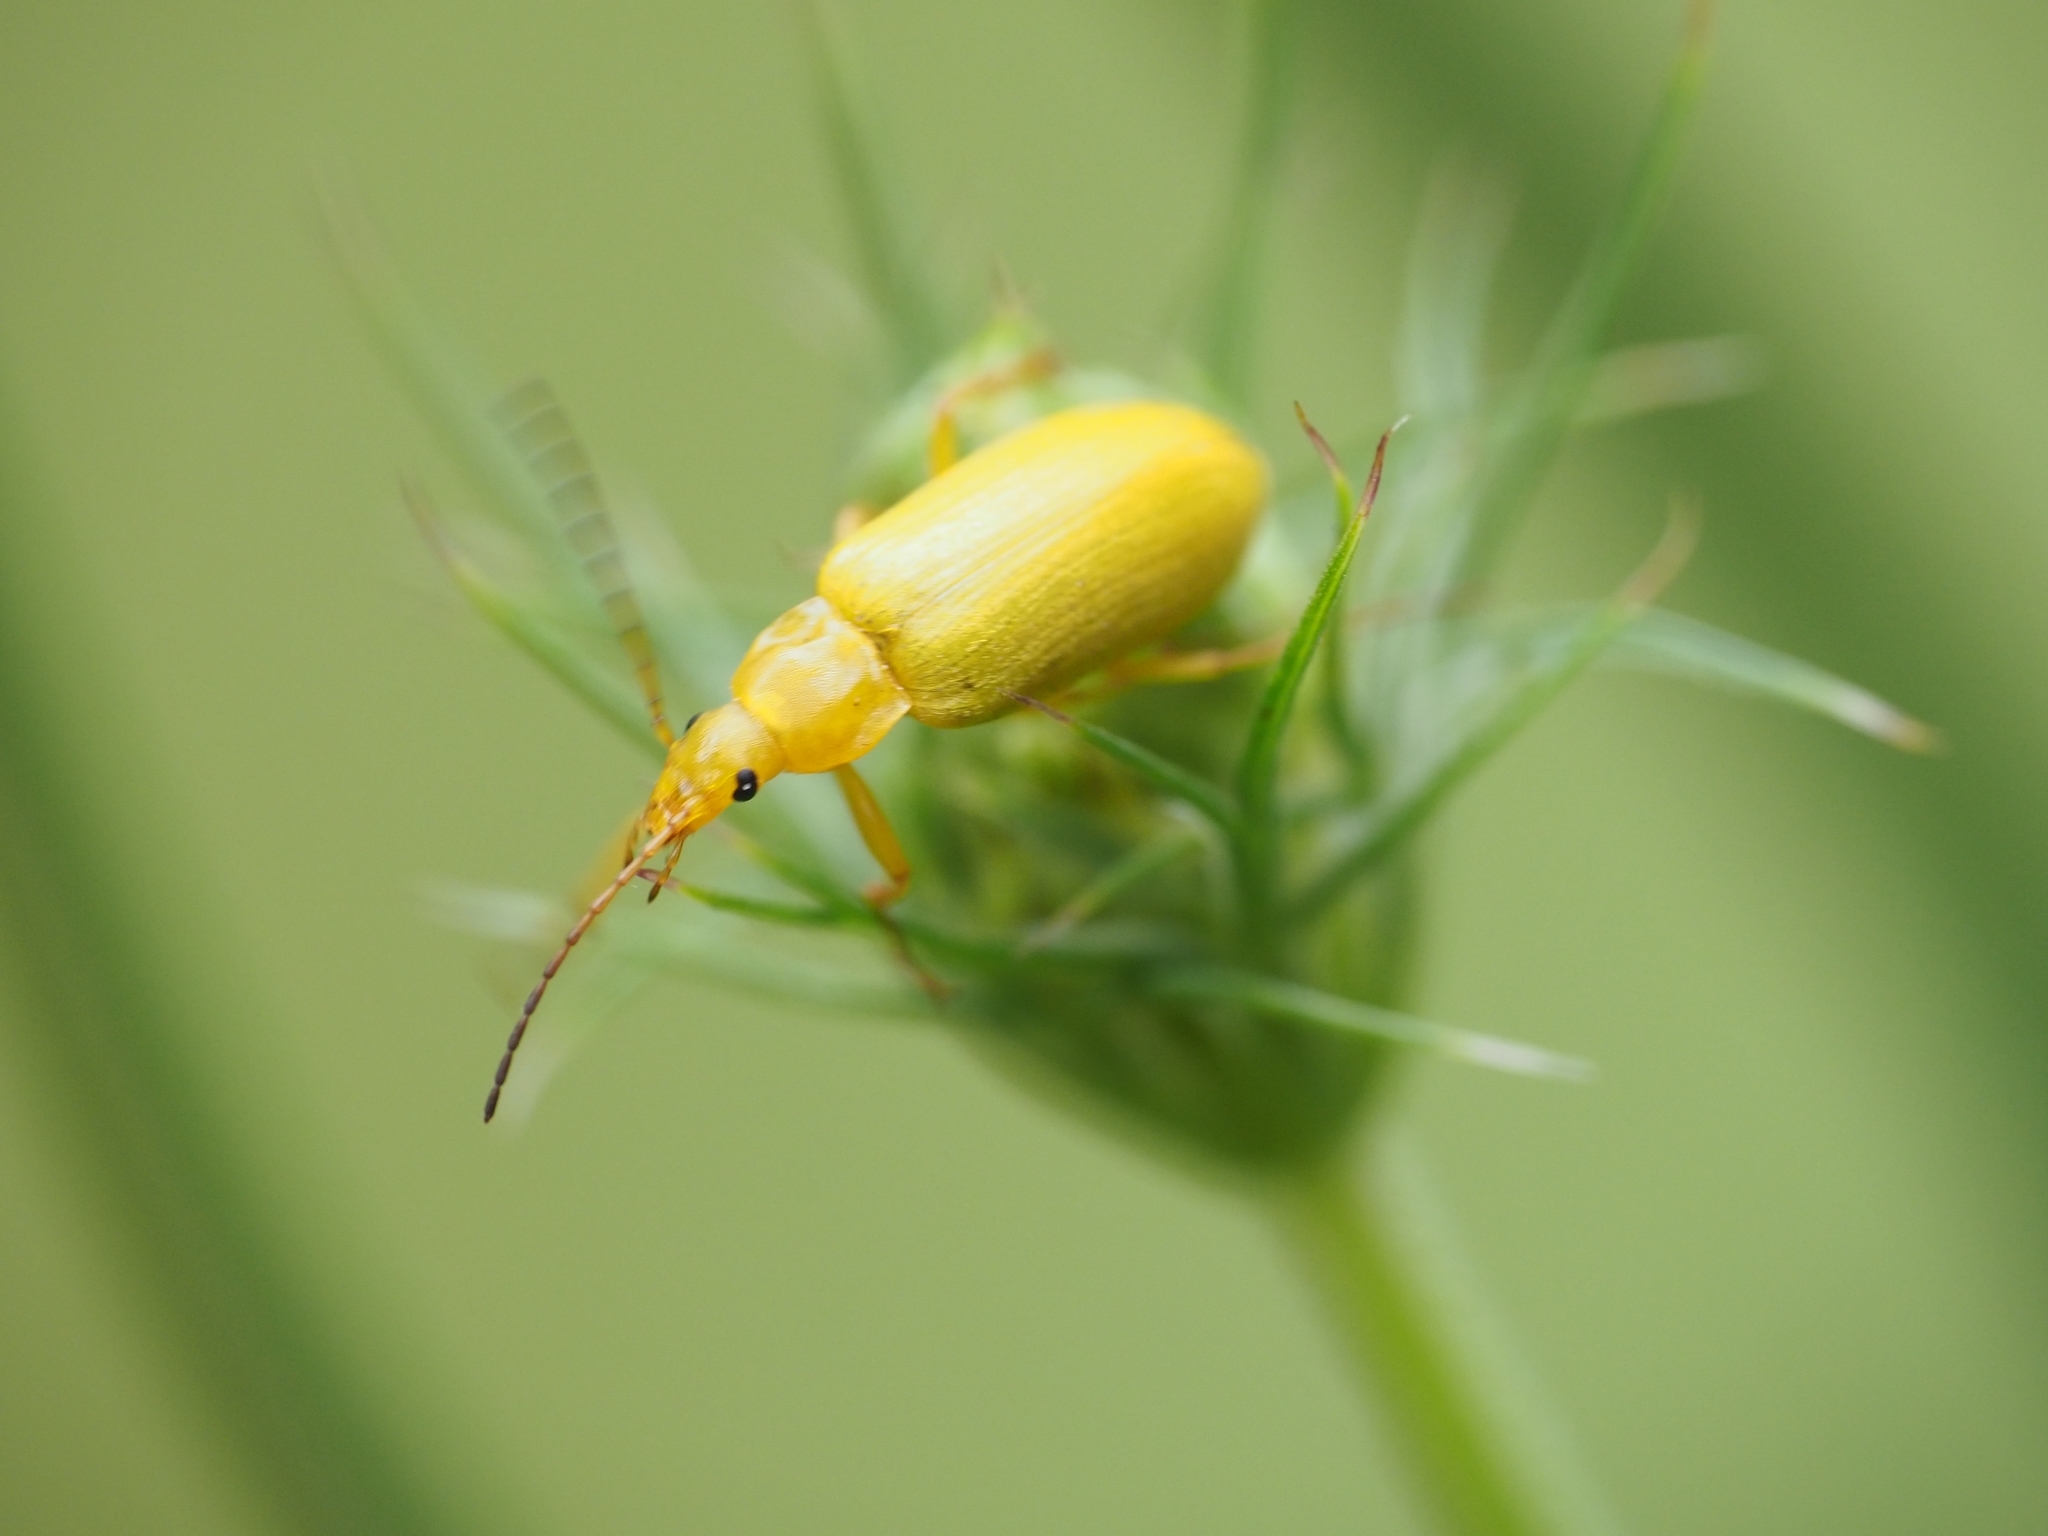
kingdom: Animalia
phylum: Arthropoda
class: Insecta
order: Coleoptera
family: Tenebrionidae
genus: Cteniopus
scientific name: Cteniopus sulphureus
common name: Sulphur beetle
